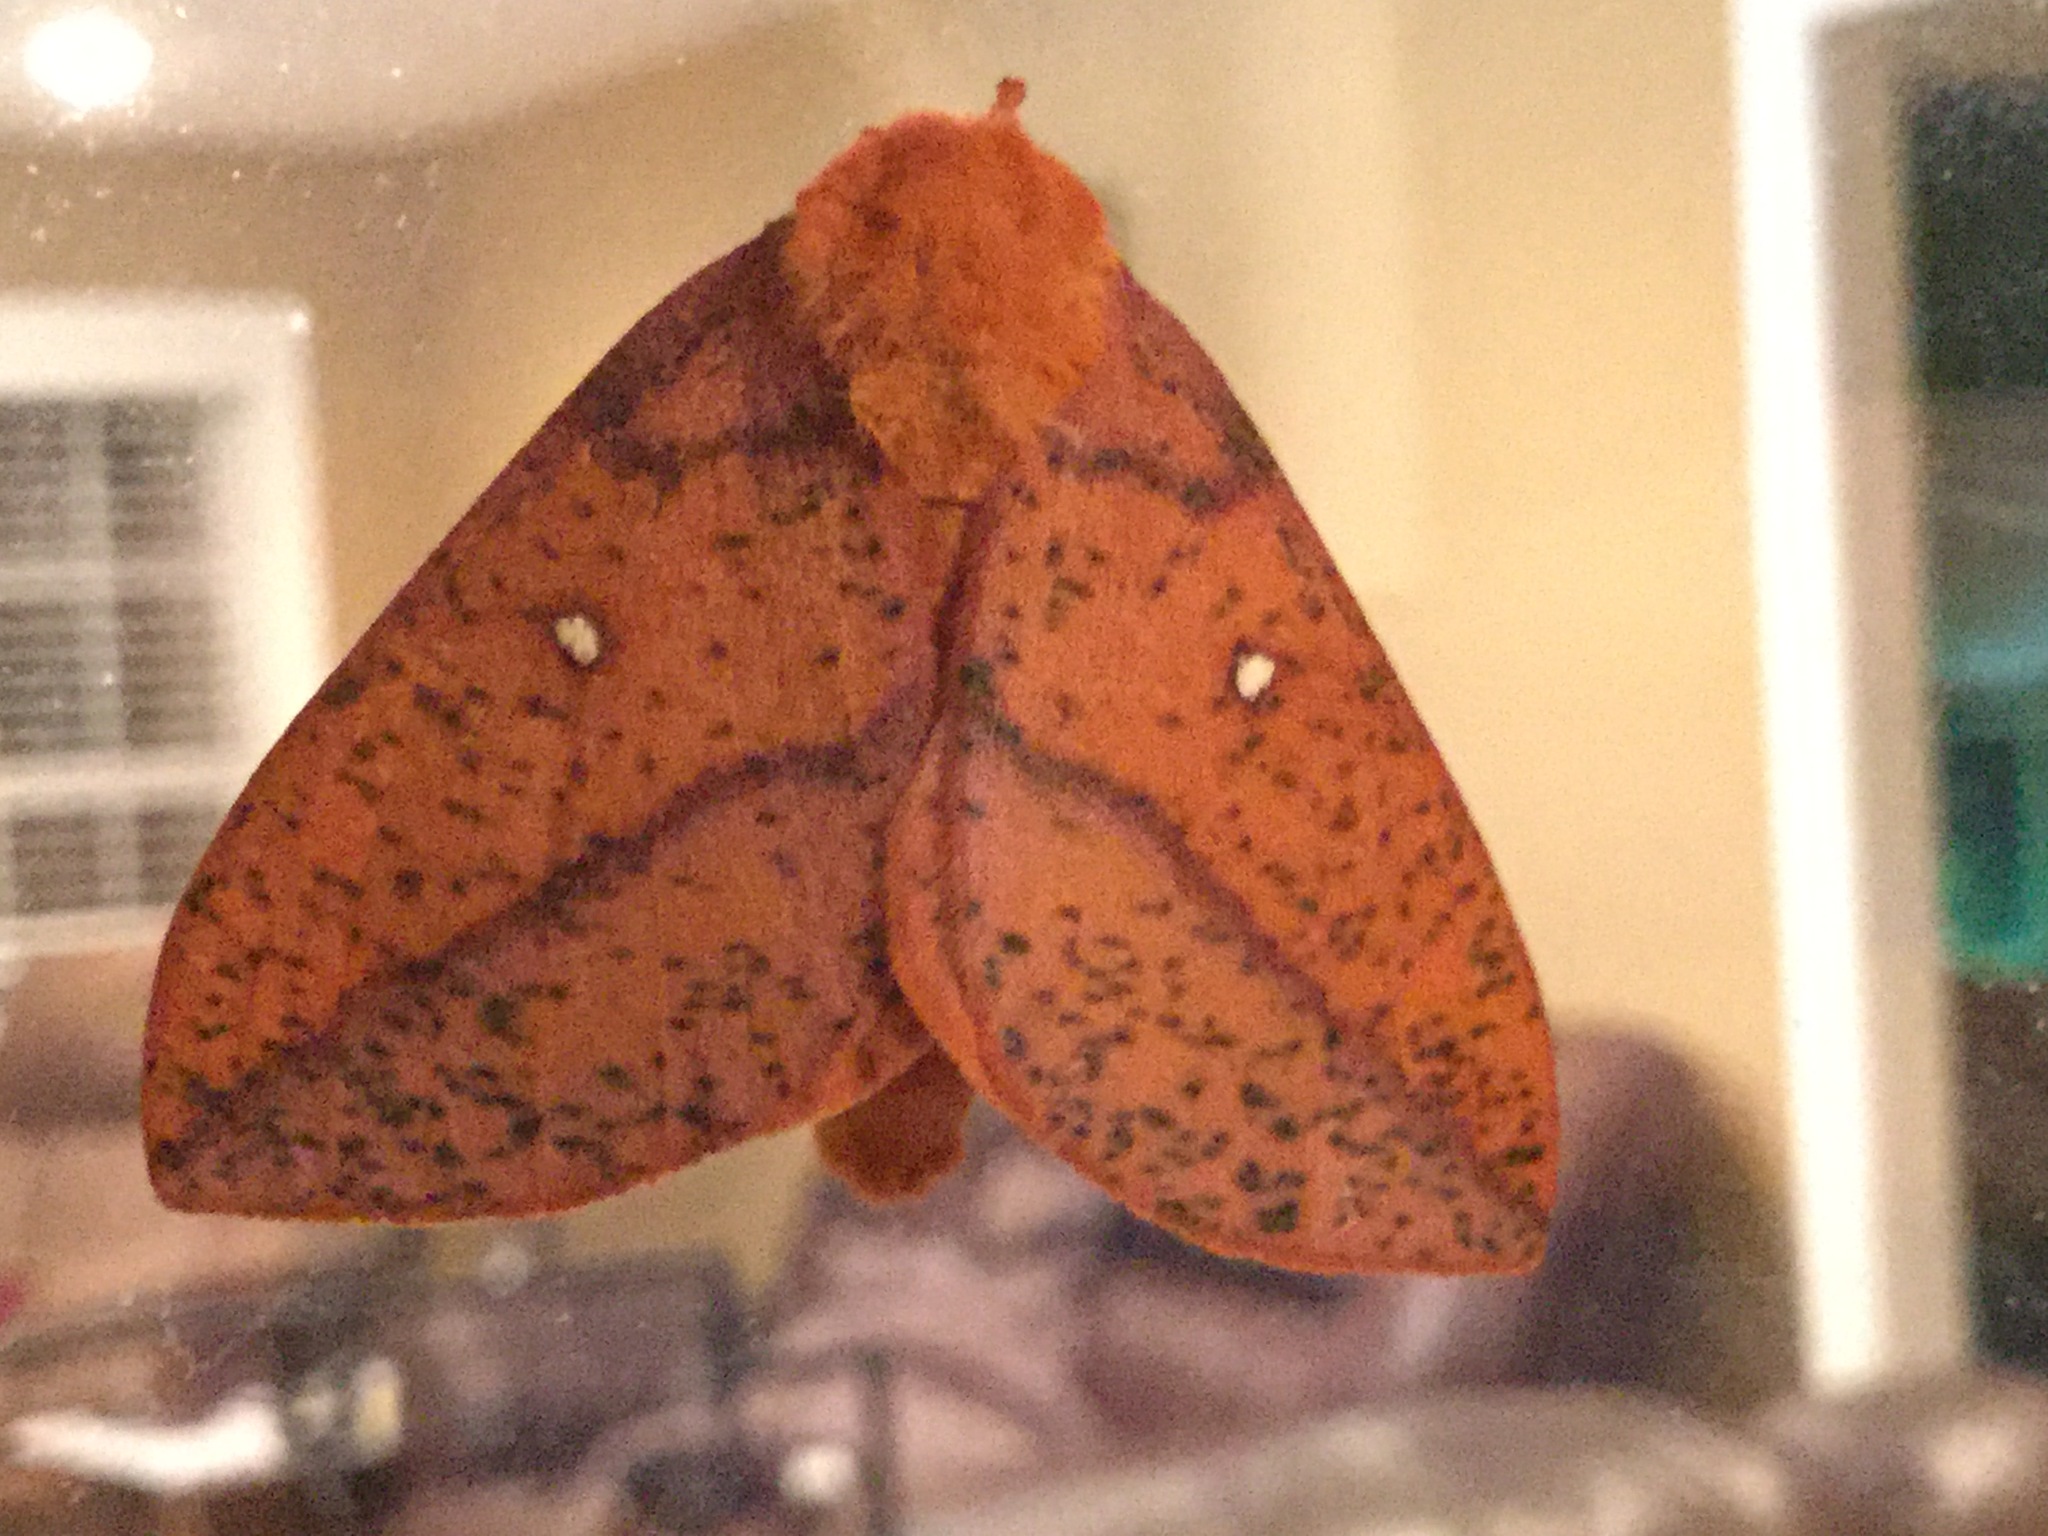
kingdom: Animalia
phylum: Arthropoda
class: Insecta
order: Lepidoptera
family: Saturniidae
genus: Anisota
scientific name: Anisota stigma
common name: Spiny oakworm moth
